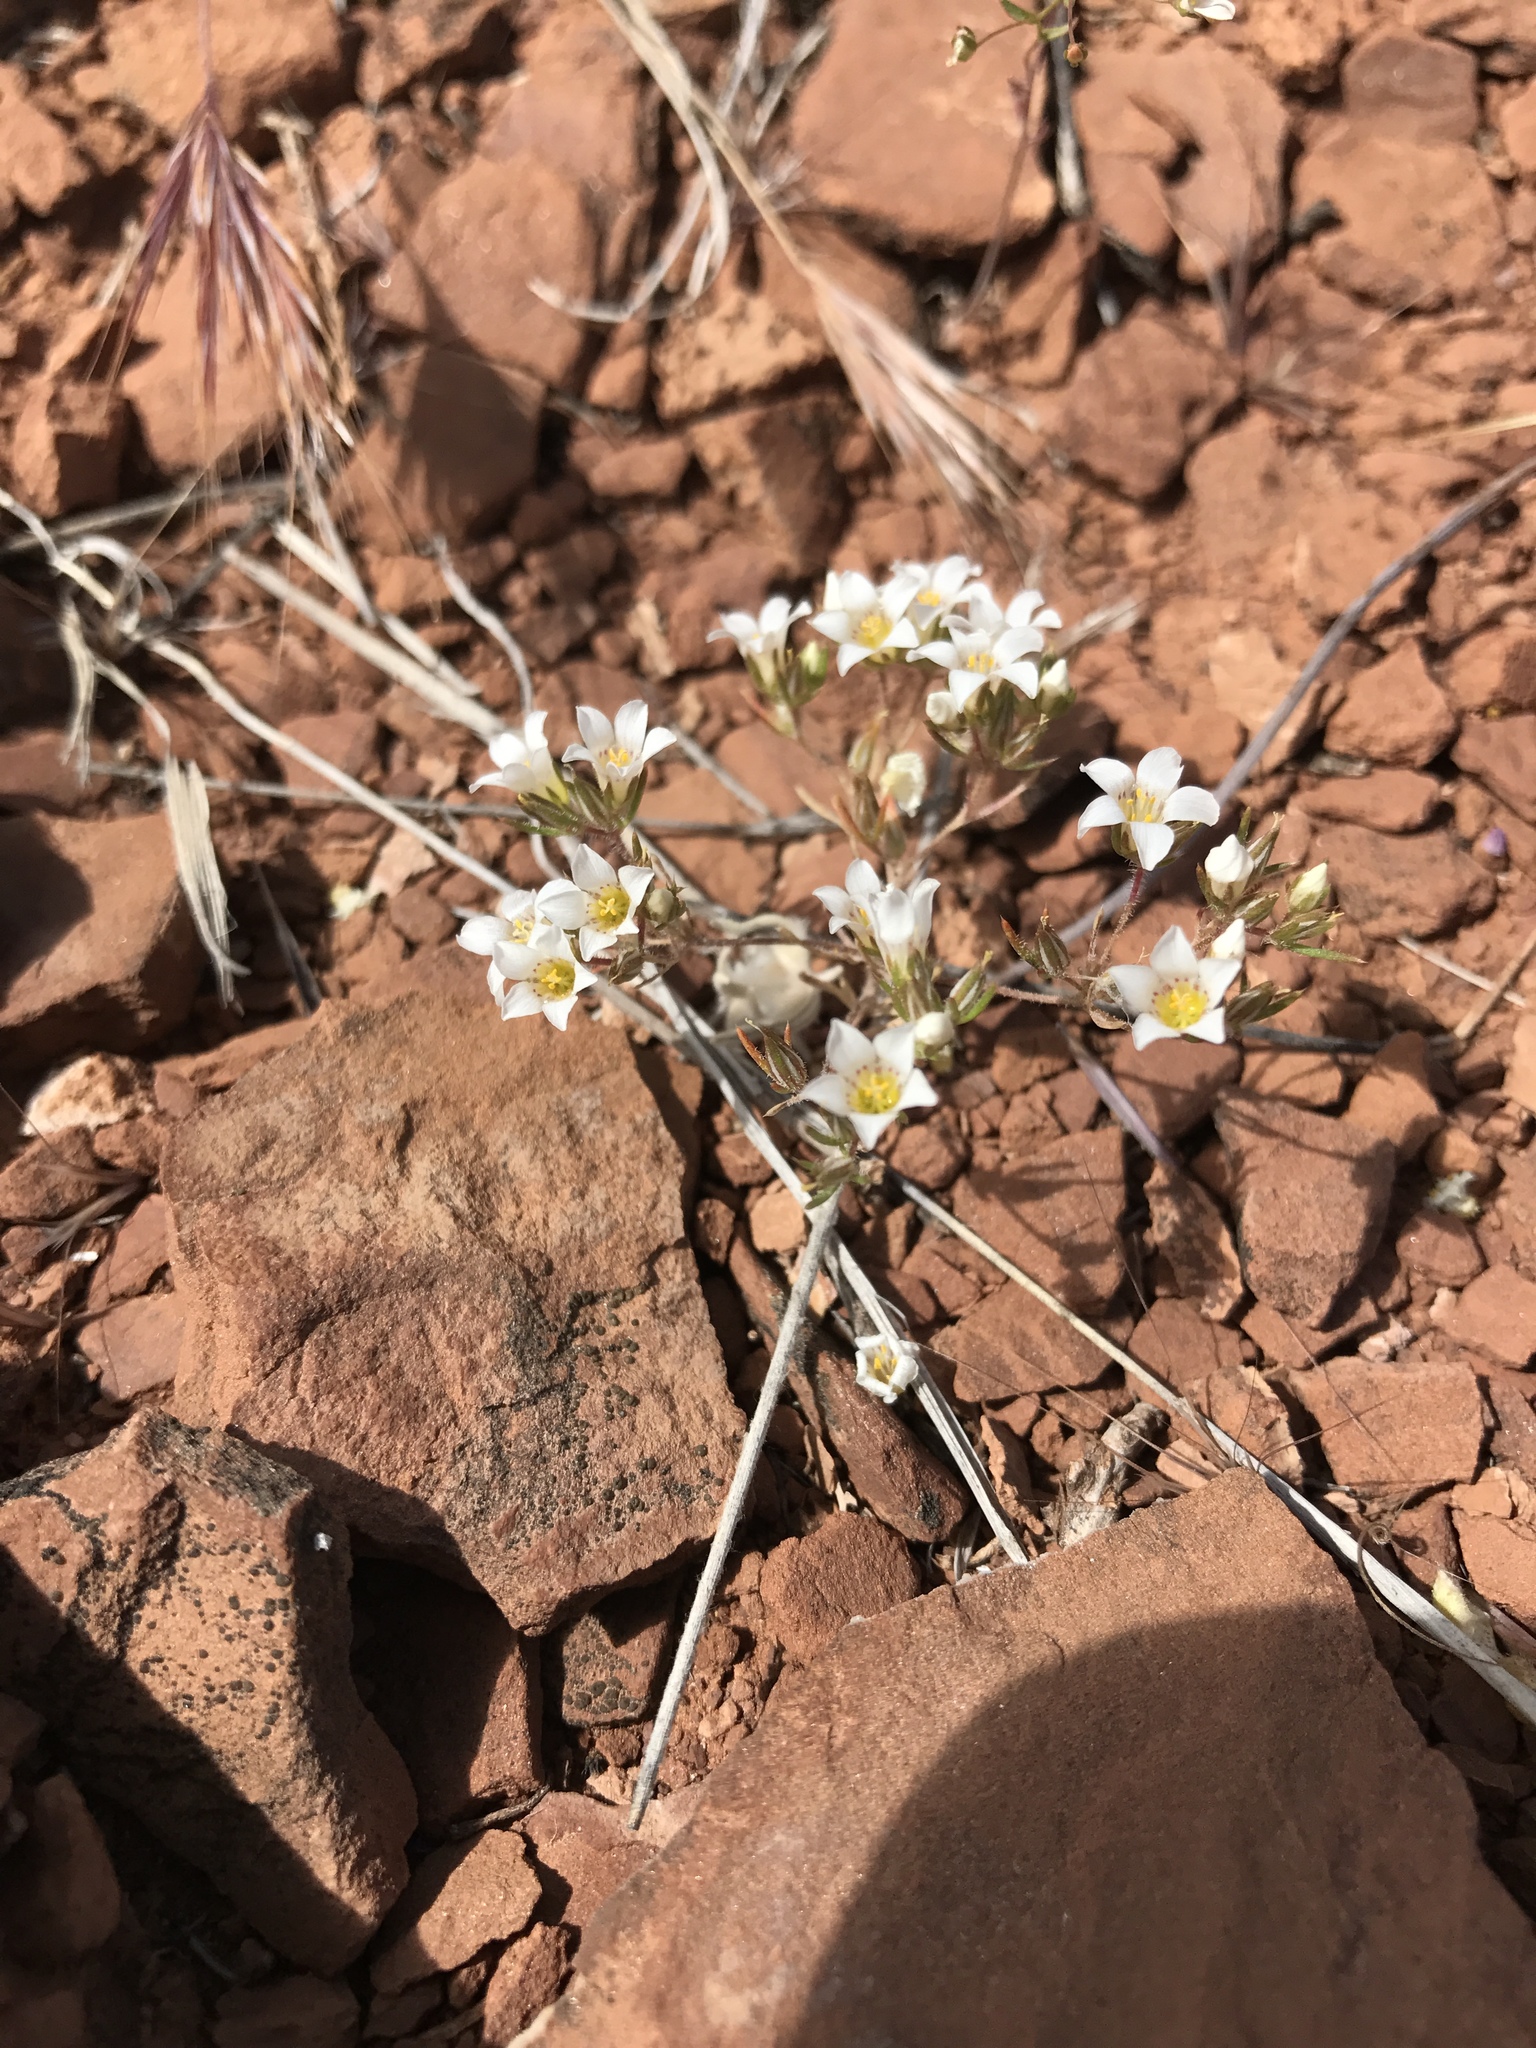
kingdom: Plantae
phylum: Tracheophyta
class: Magnoliopsida
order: Ericales
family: Polemoniaceae
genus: Linanthus
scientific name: Linanthus demissus
